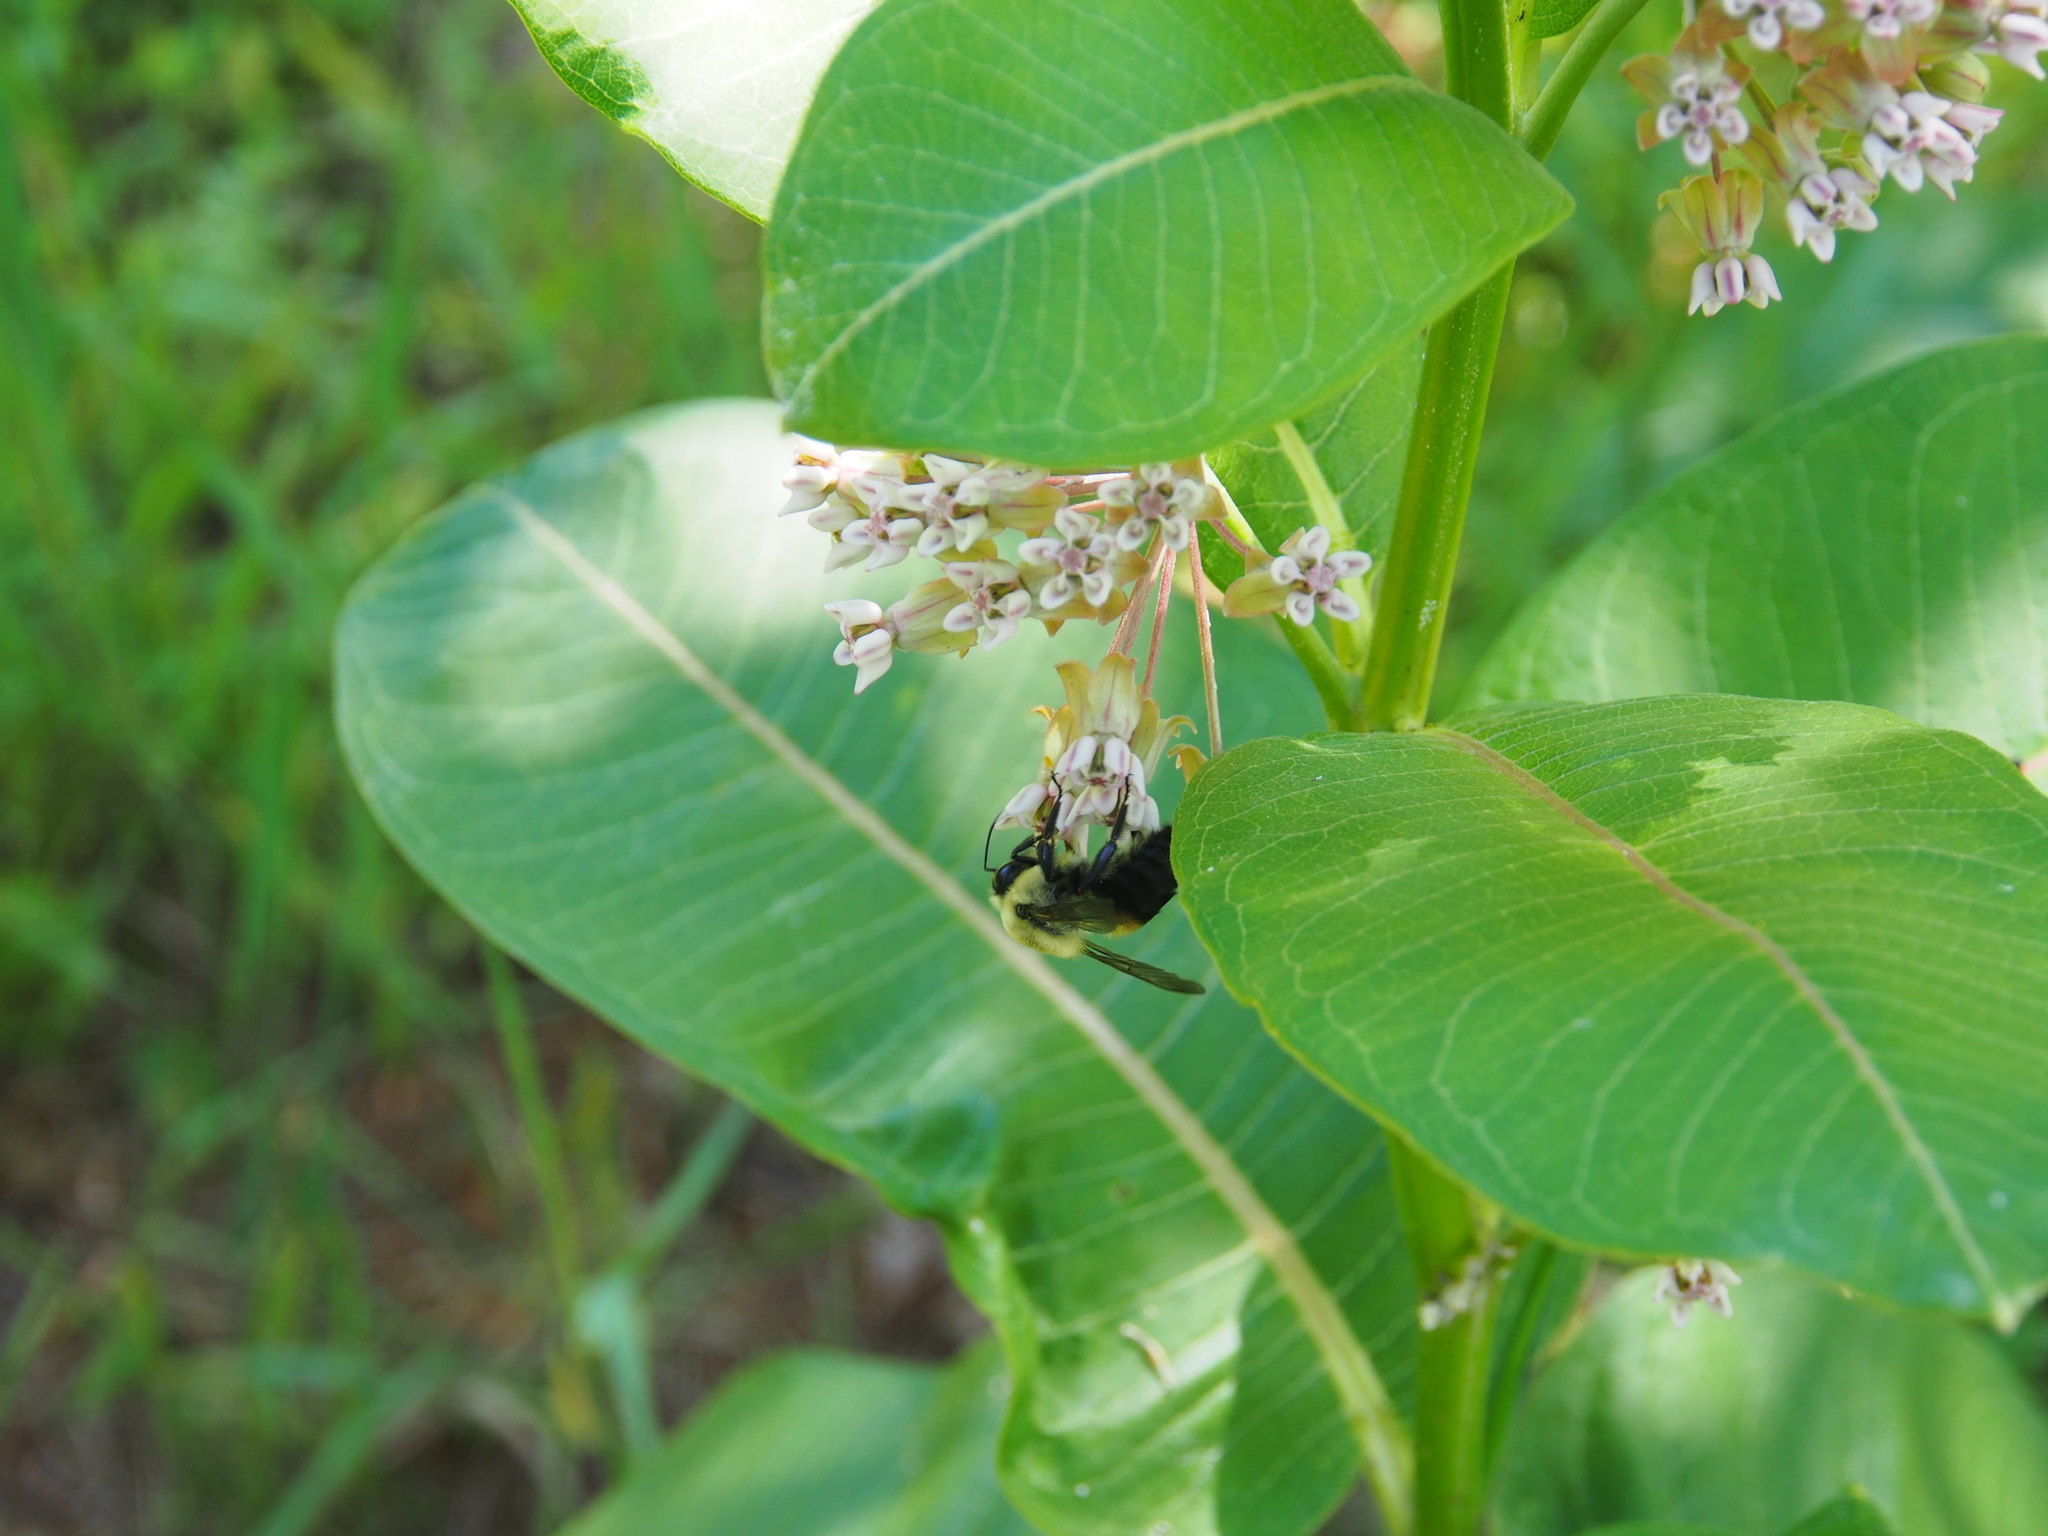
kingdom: Animalia
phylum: Arthropoda
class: Insecta
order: Hymenoptera
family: Apidae
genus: Bombus
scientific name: Bombus griseocollis
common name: Brown-belted bumble bee
